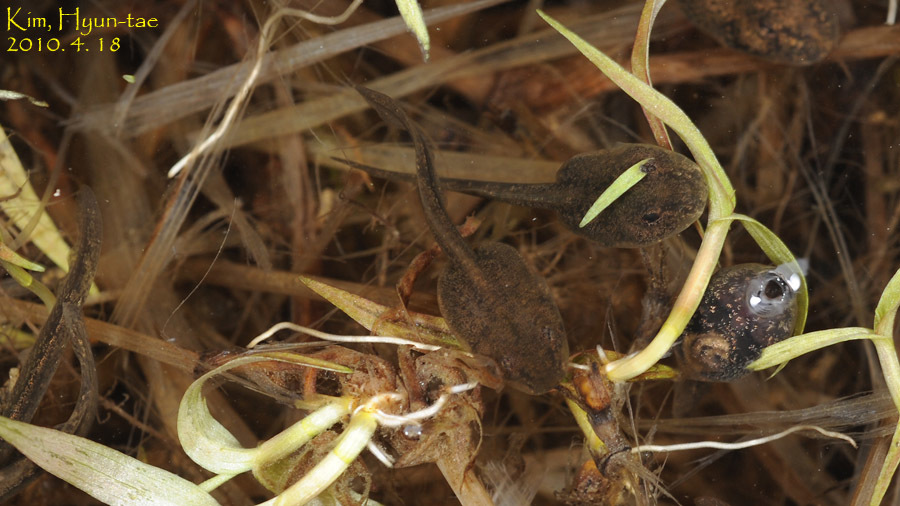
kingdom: Animalia
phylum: Chordata
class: Amphibia
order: Anura
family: Ranidae
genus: Rana
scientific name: Rana uenoi
